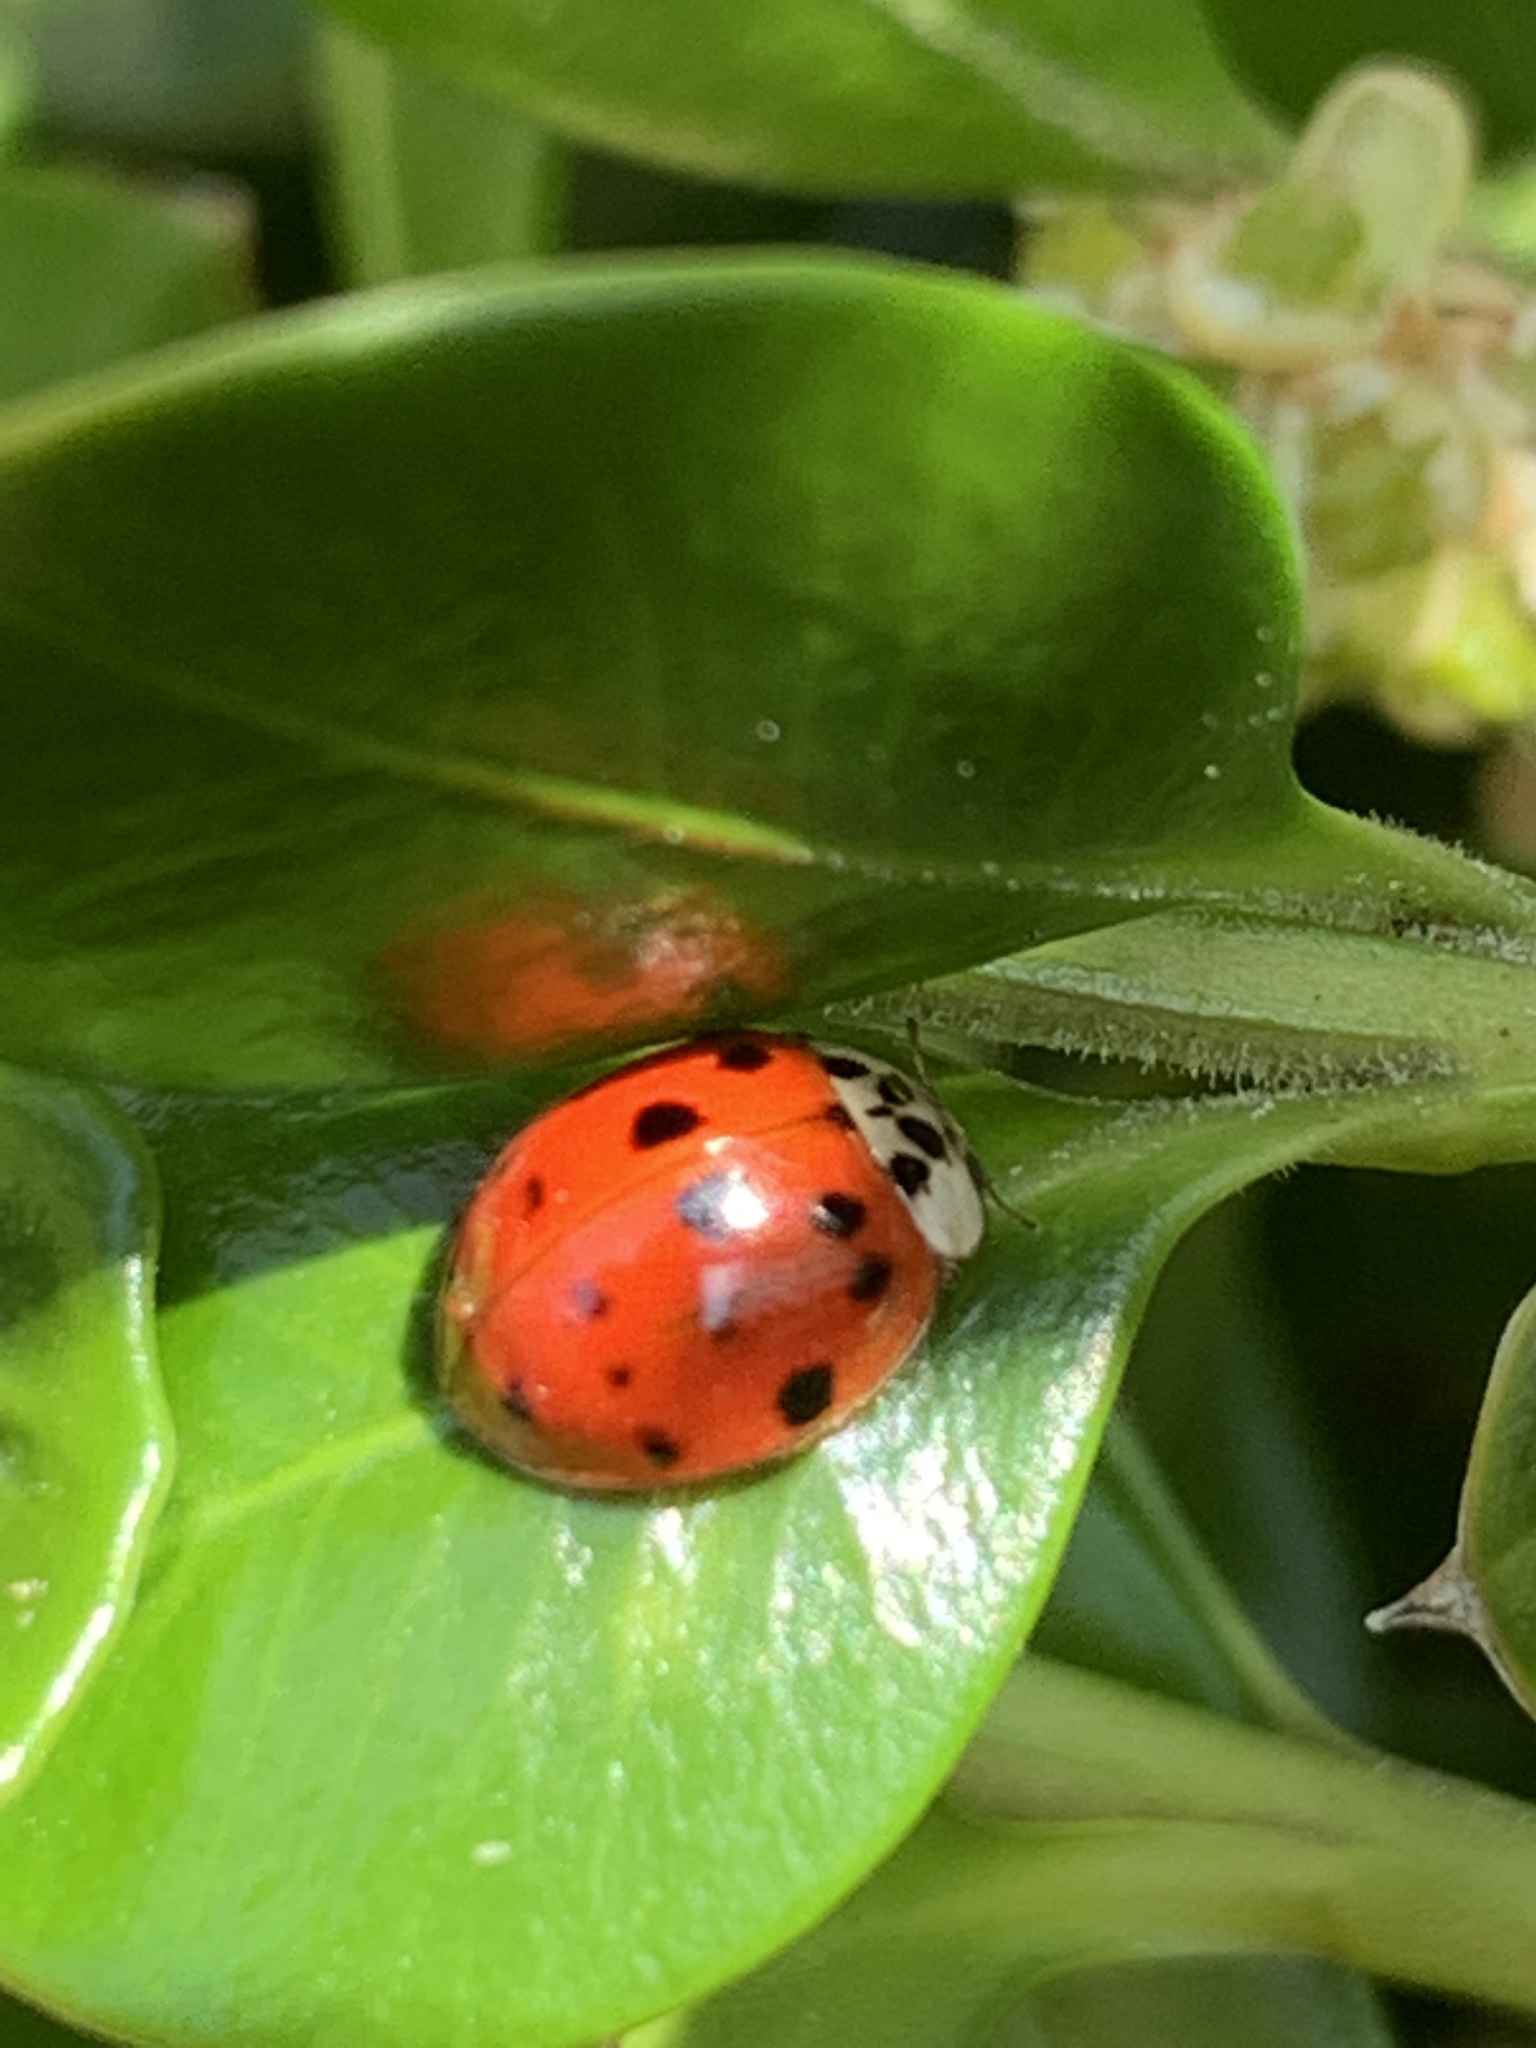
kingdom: Animalia
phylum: Arthropoda
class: Insecta
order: Coleoptera
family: Coccinellidae
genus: Harmonia
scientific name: Harmonia axyridis
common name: Harlequin ladybird
